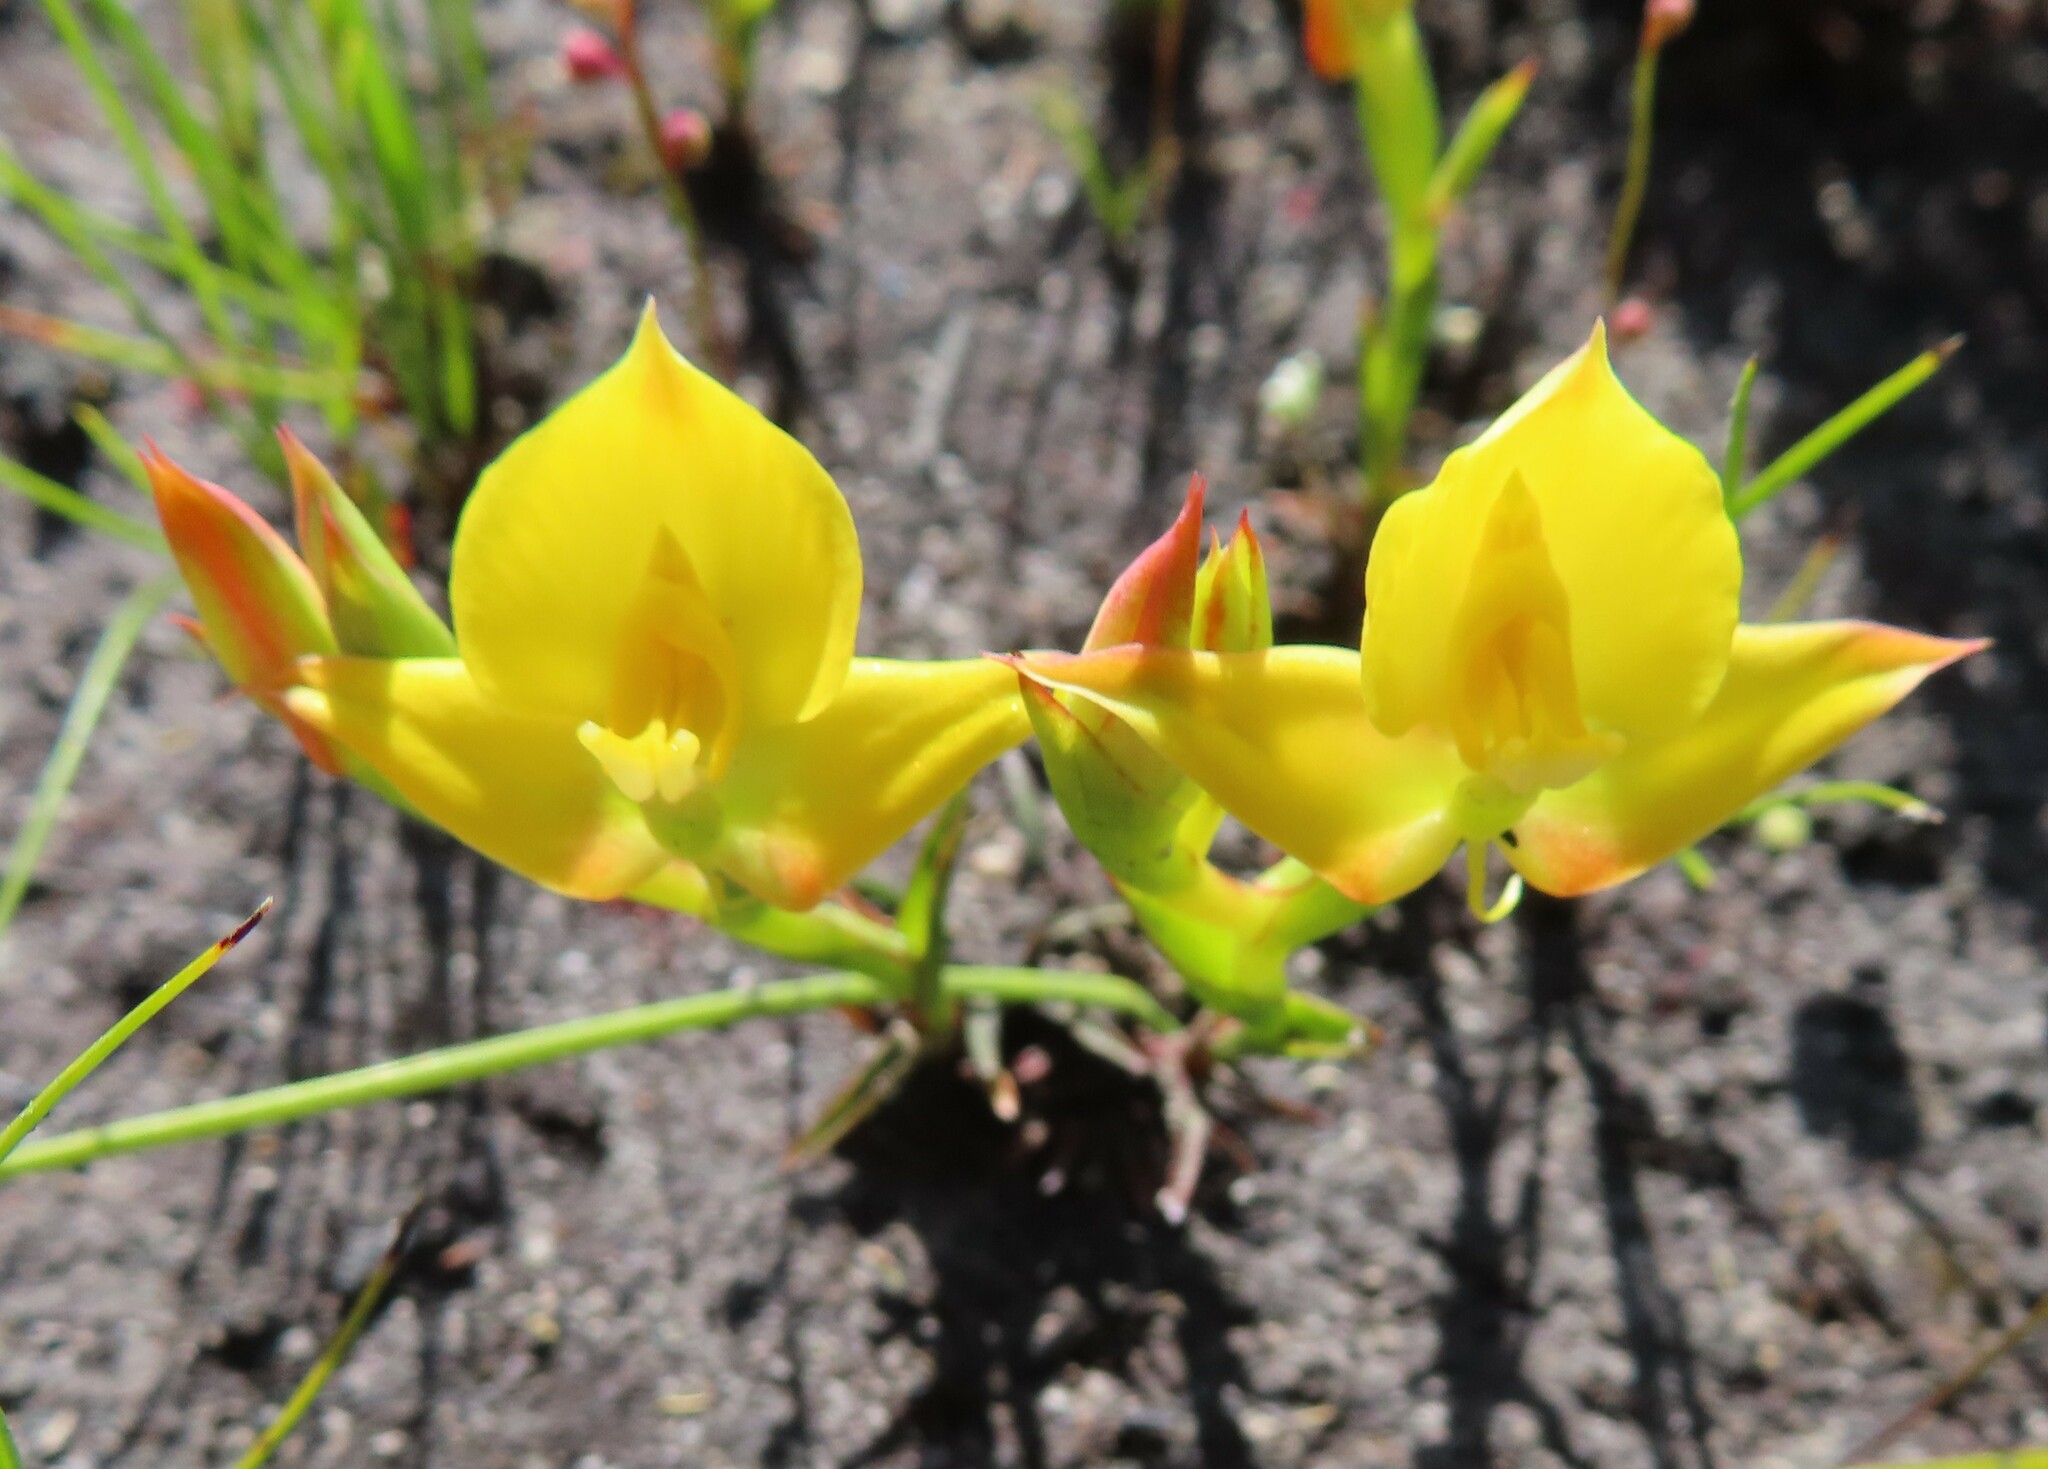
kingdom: Plantae
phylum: Tracheophyta
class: Liliopsida
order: Asparagales
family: Orchidaceae
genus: Disa
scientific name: Disa tenuifolia
